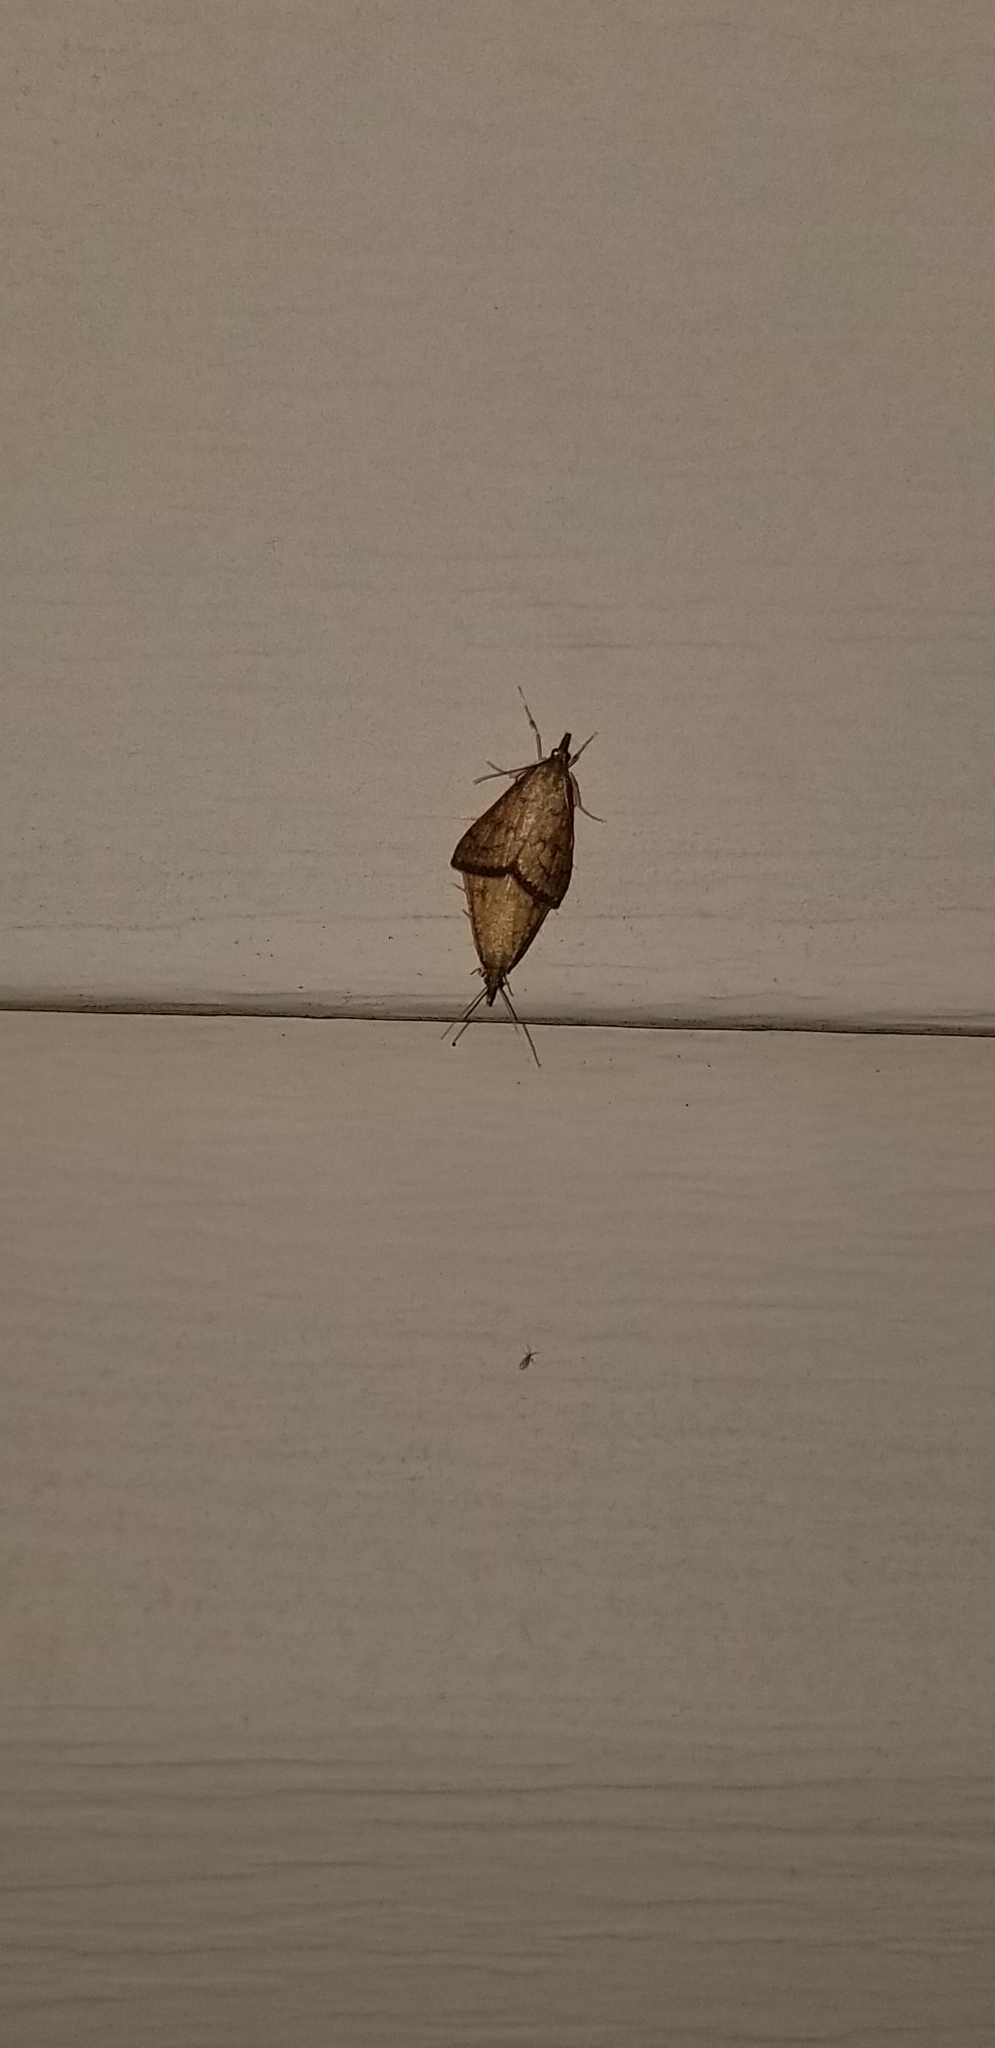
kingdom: Animalia
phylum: Arthropoda
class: Insecta
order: Lepidoptera
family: Crambidae
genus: Udea
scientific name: Udea rubigalis
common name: Celery leaftier moth
